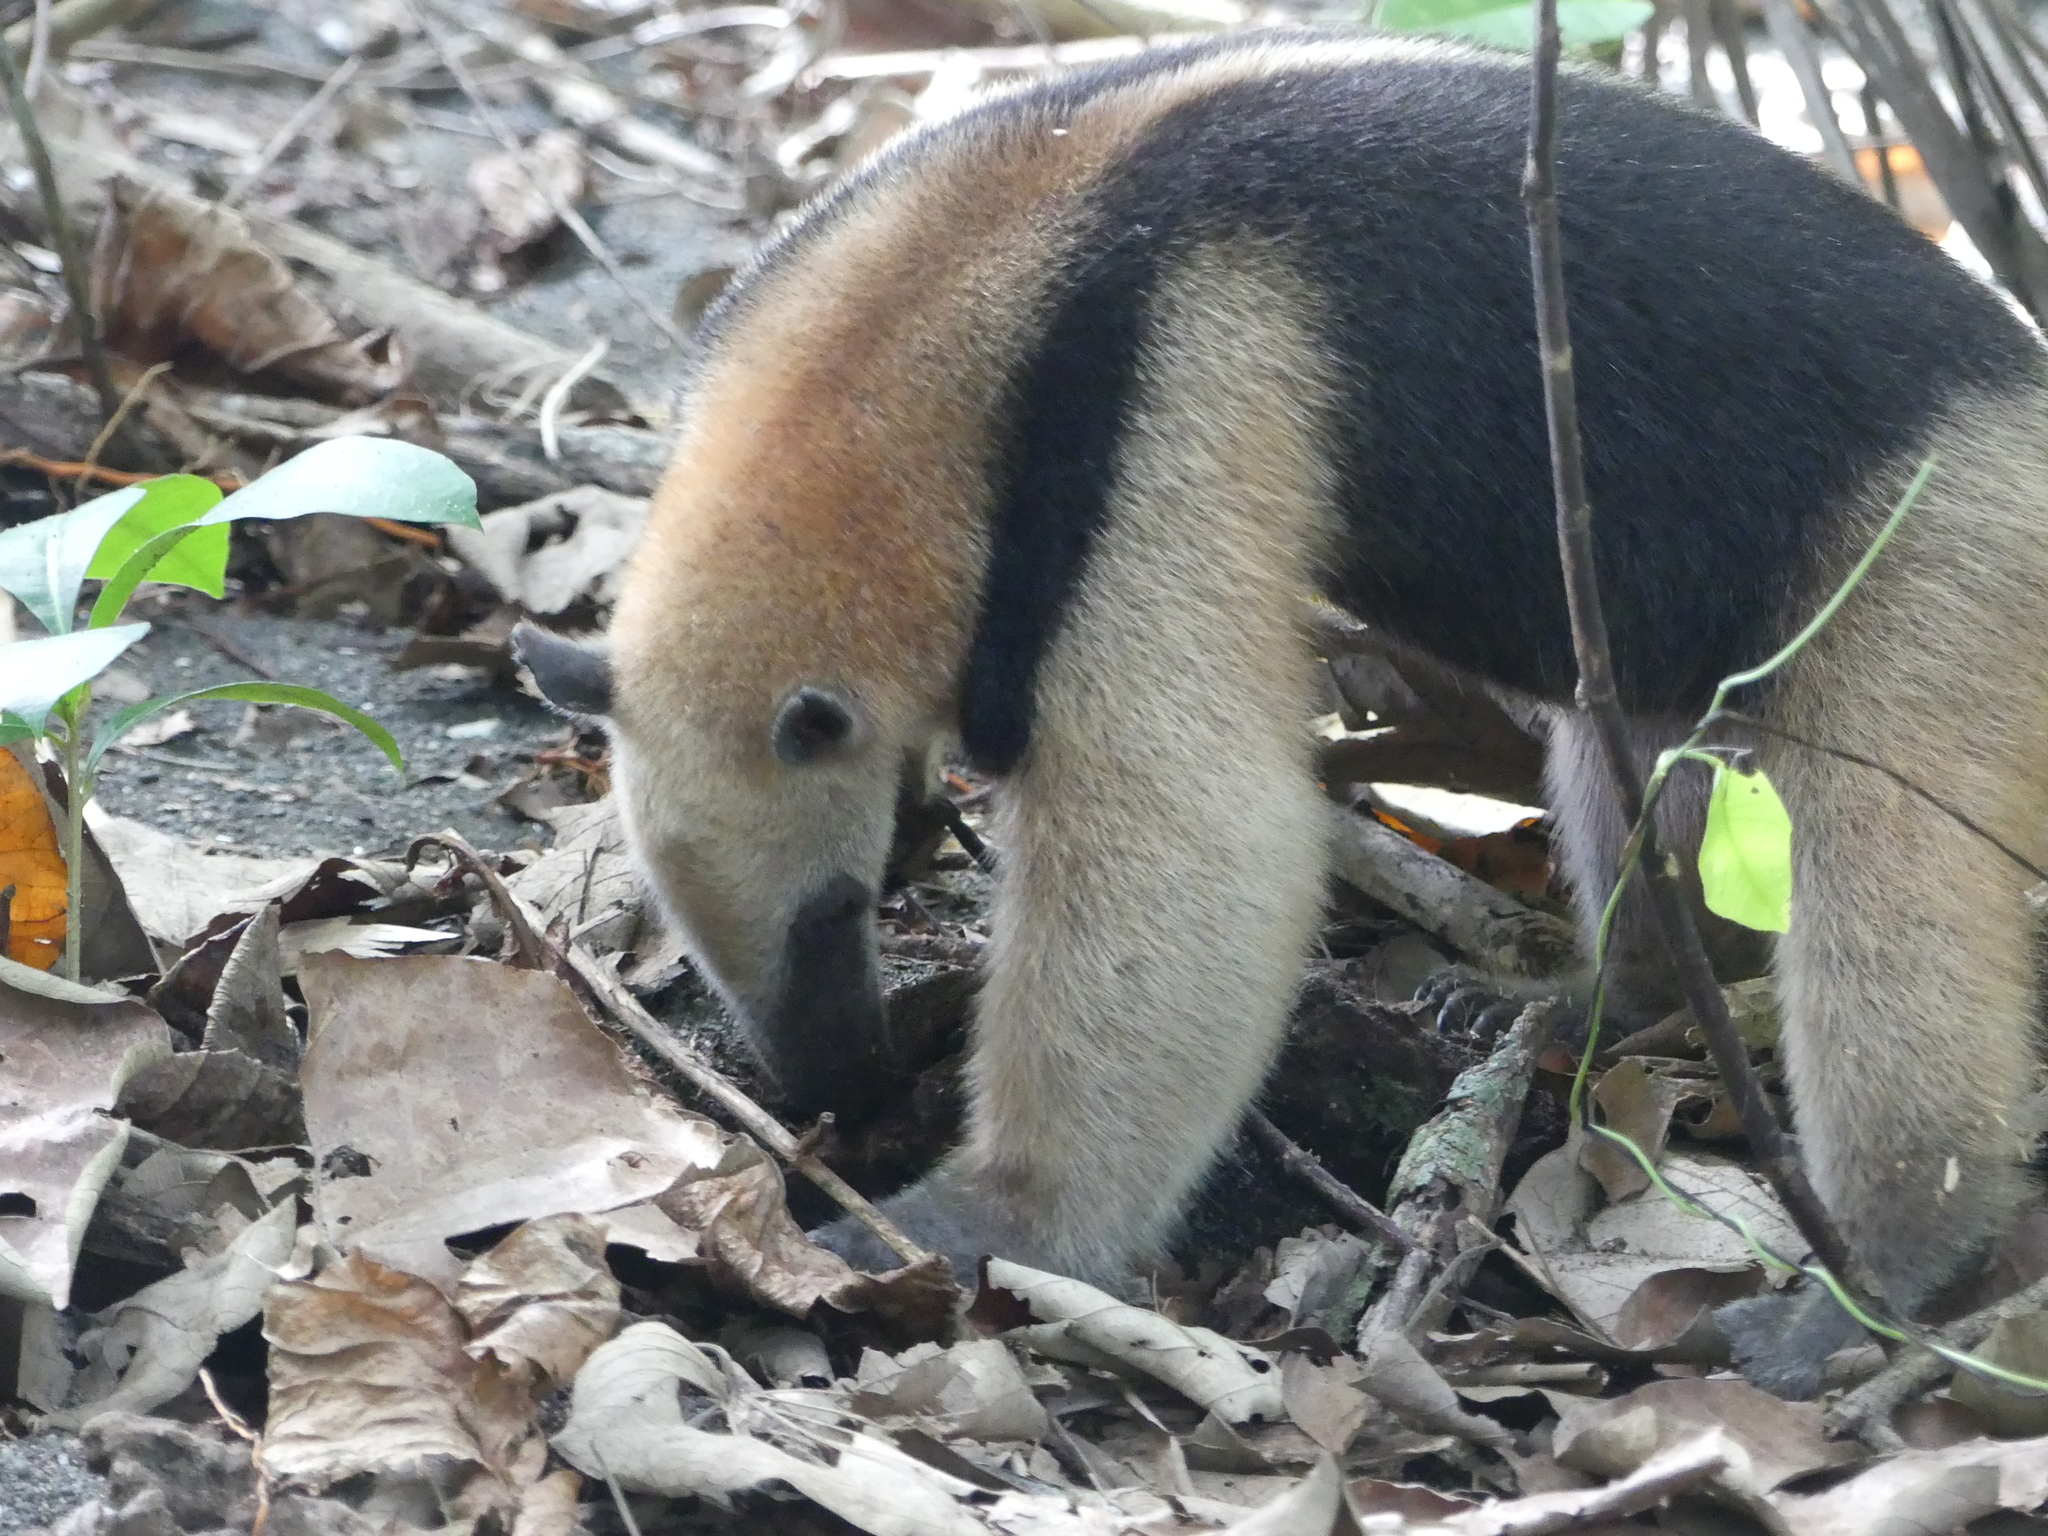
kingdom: Animalia
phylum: Chordata
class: Mammalia
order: Pilosa
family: Myrmecophagidae
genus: Tamandua
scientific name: Tamandua mexicana
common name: Northern tamandua
